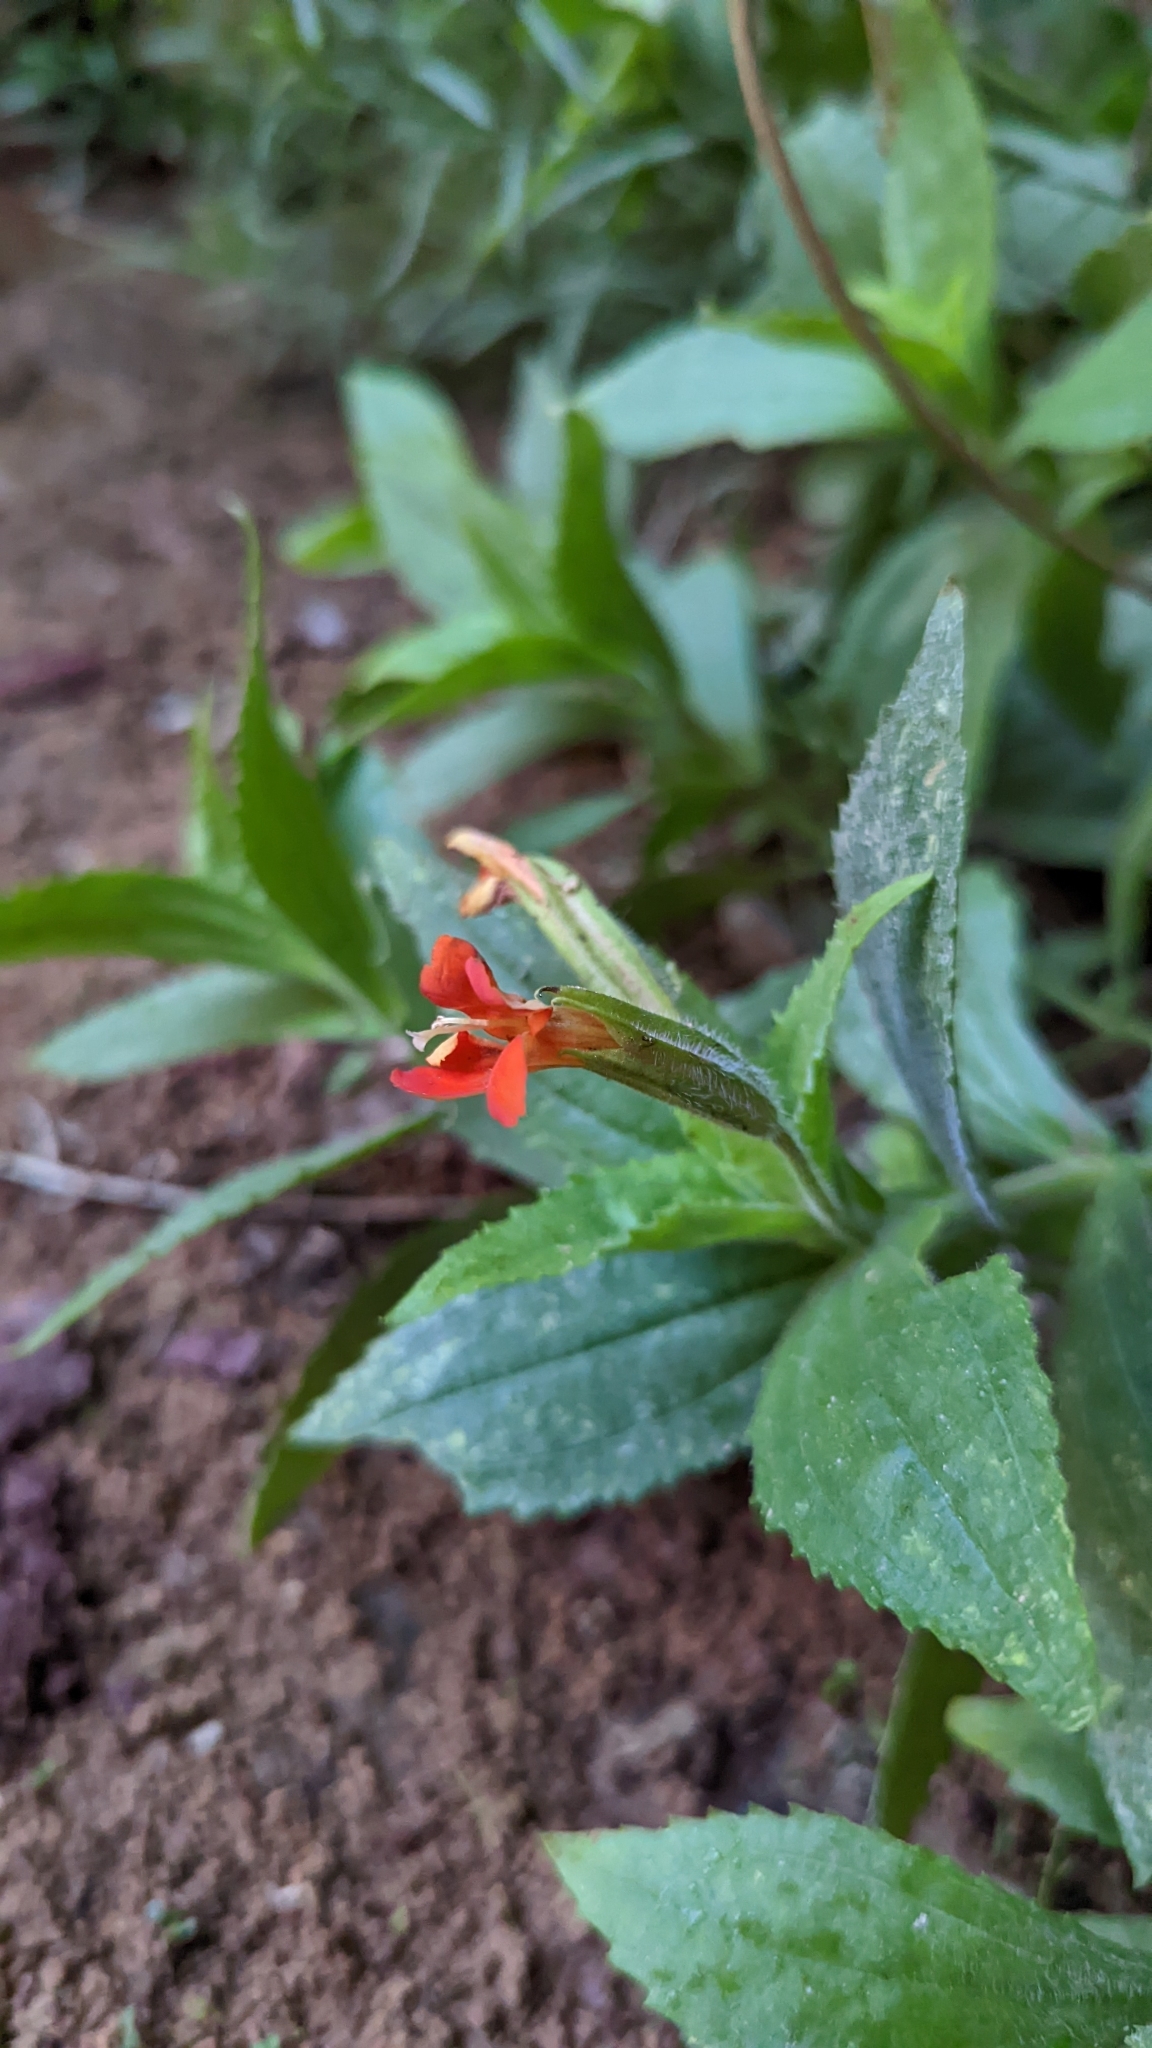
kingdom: Plantae
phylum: Tracheophyta
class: Magnoliopsida
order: Lamiales
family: Phrymaceae
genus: Erythranthe
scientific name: Erythranthe verbenacea
